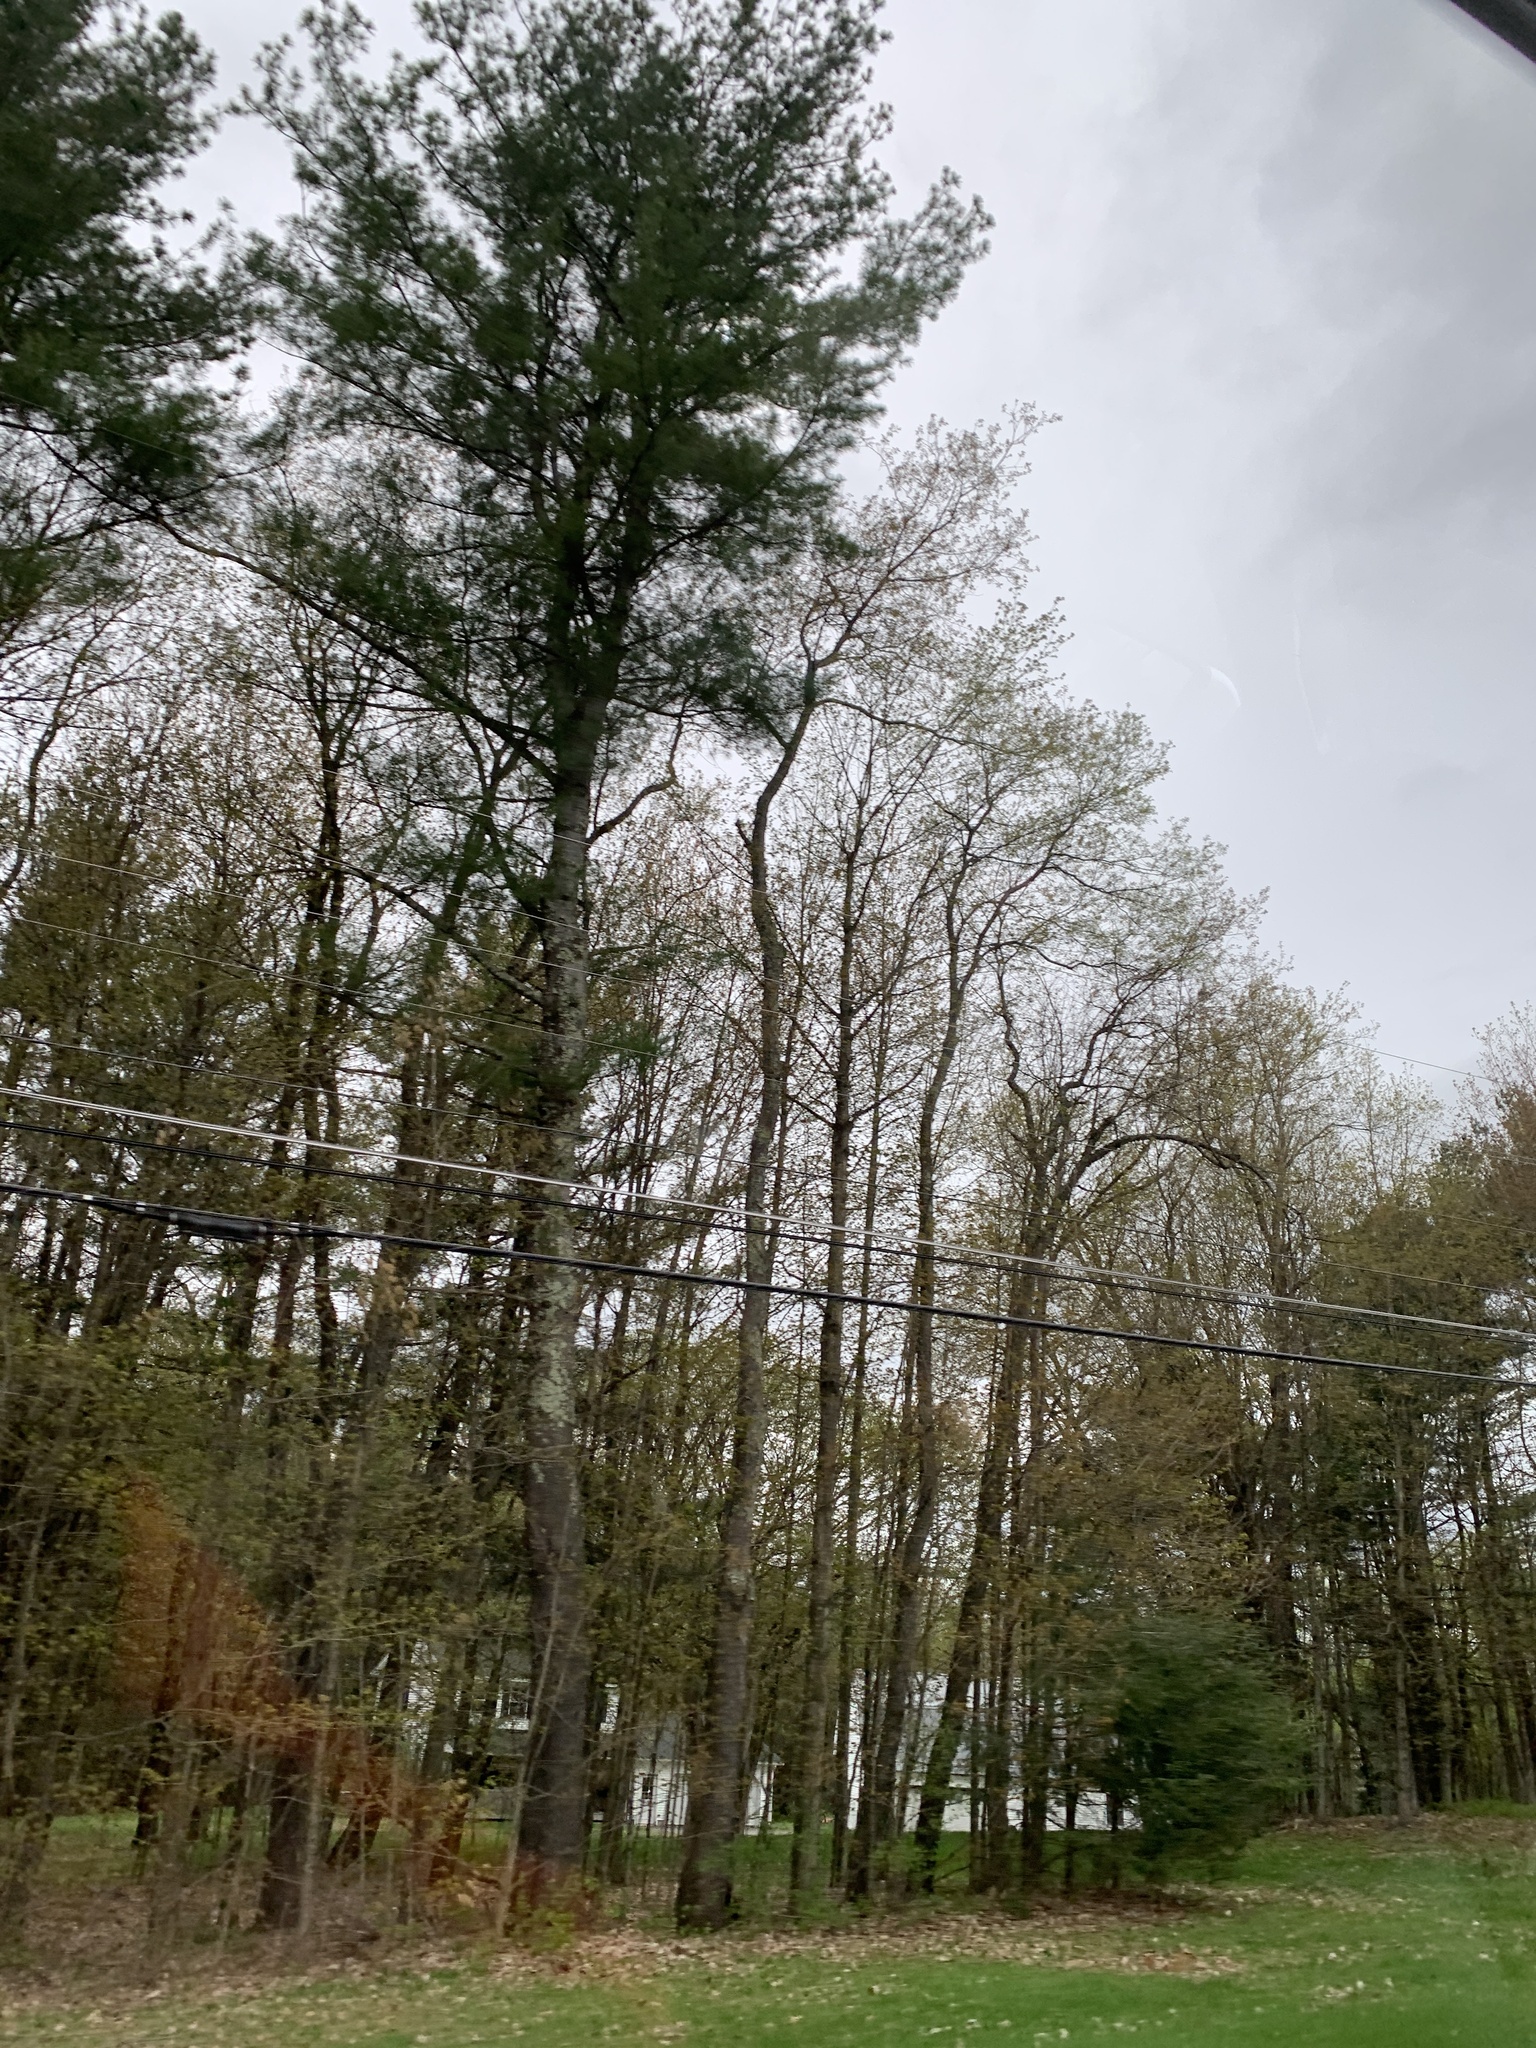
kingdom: Plantae
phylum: Tracheophyta
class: Pinopsida
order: Pinales
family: Pinaceae
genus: Pinus
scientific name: Pinus strobus
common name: Weymouth pine
